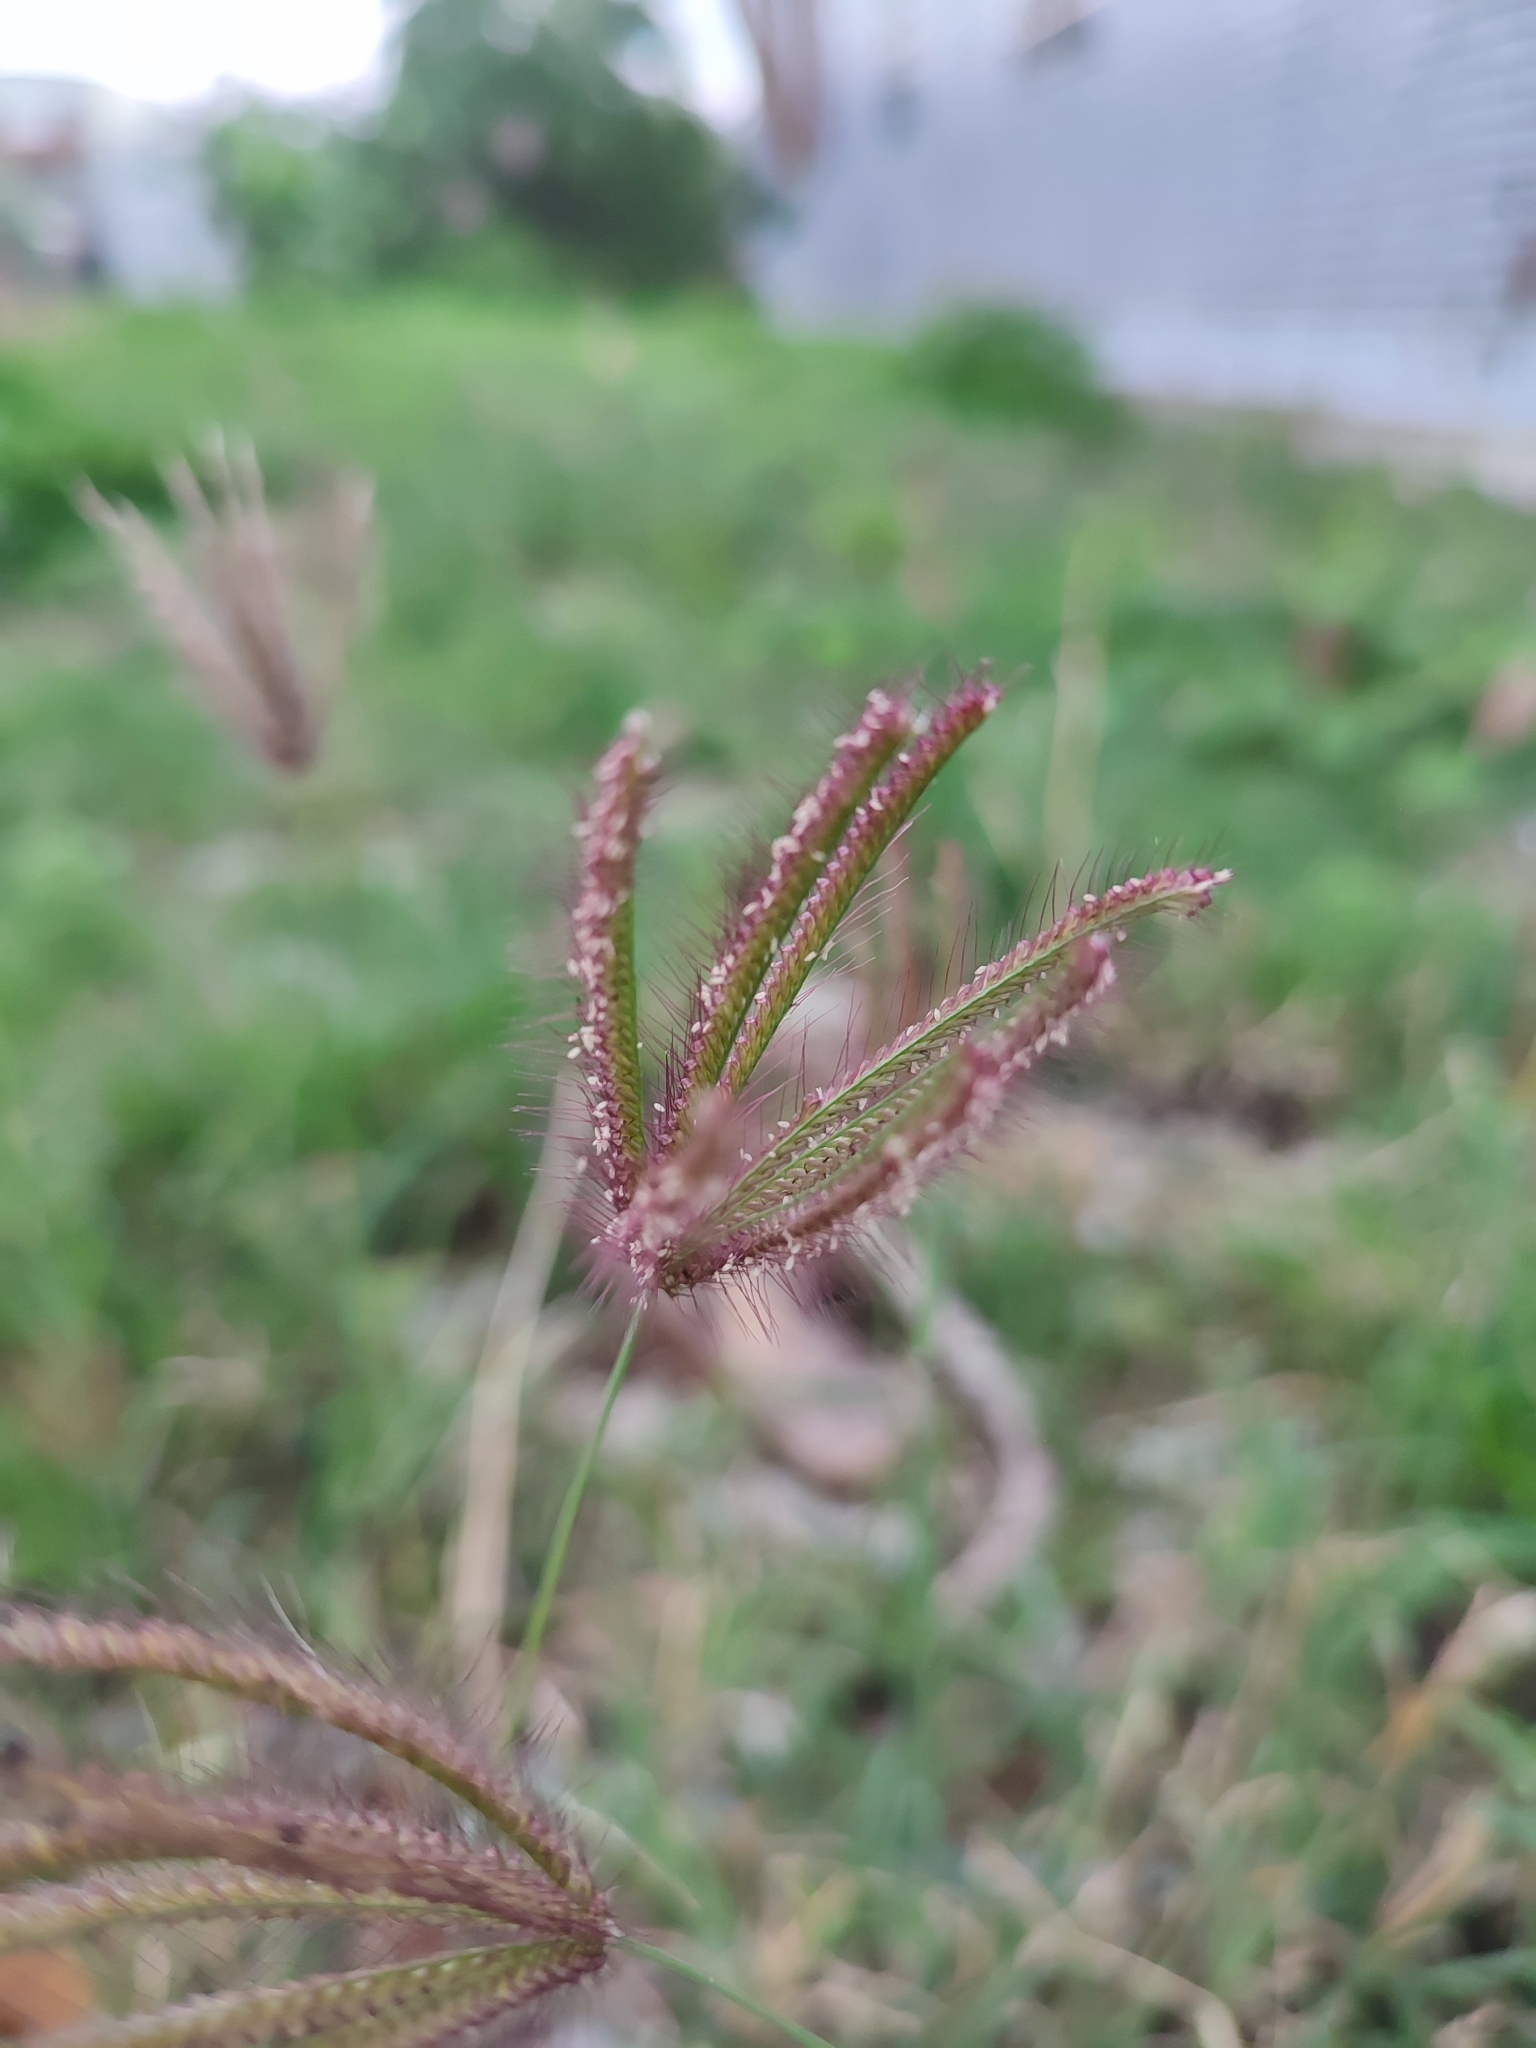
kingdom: Plantae
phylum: Tracheophyta
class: Liliopsida
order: Poales
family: Poaceae
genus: Chloris
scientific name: Chloris barbata
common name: Swollen fingergrass
